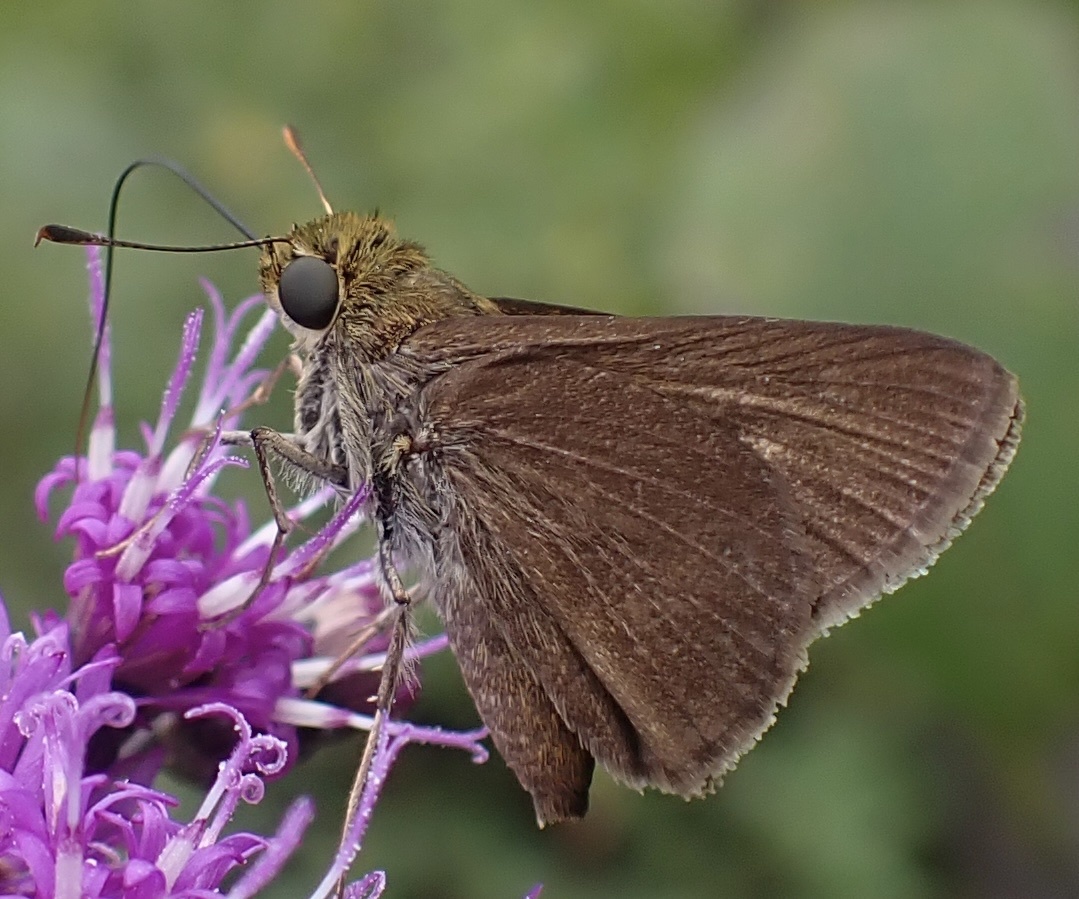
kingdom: Animalia
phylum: Arthropoda
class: Insecta
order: Lepidoptera
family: Hesperiidae
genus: Euphyes
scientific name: Euphyes vestris
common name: Dun skipper
